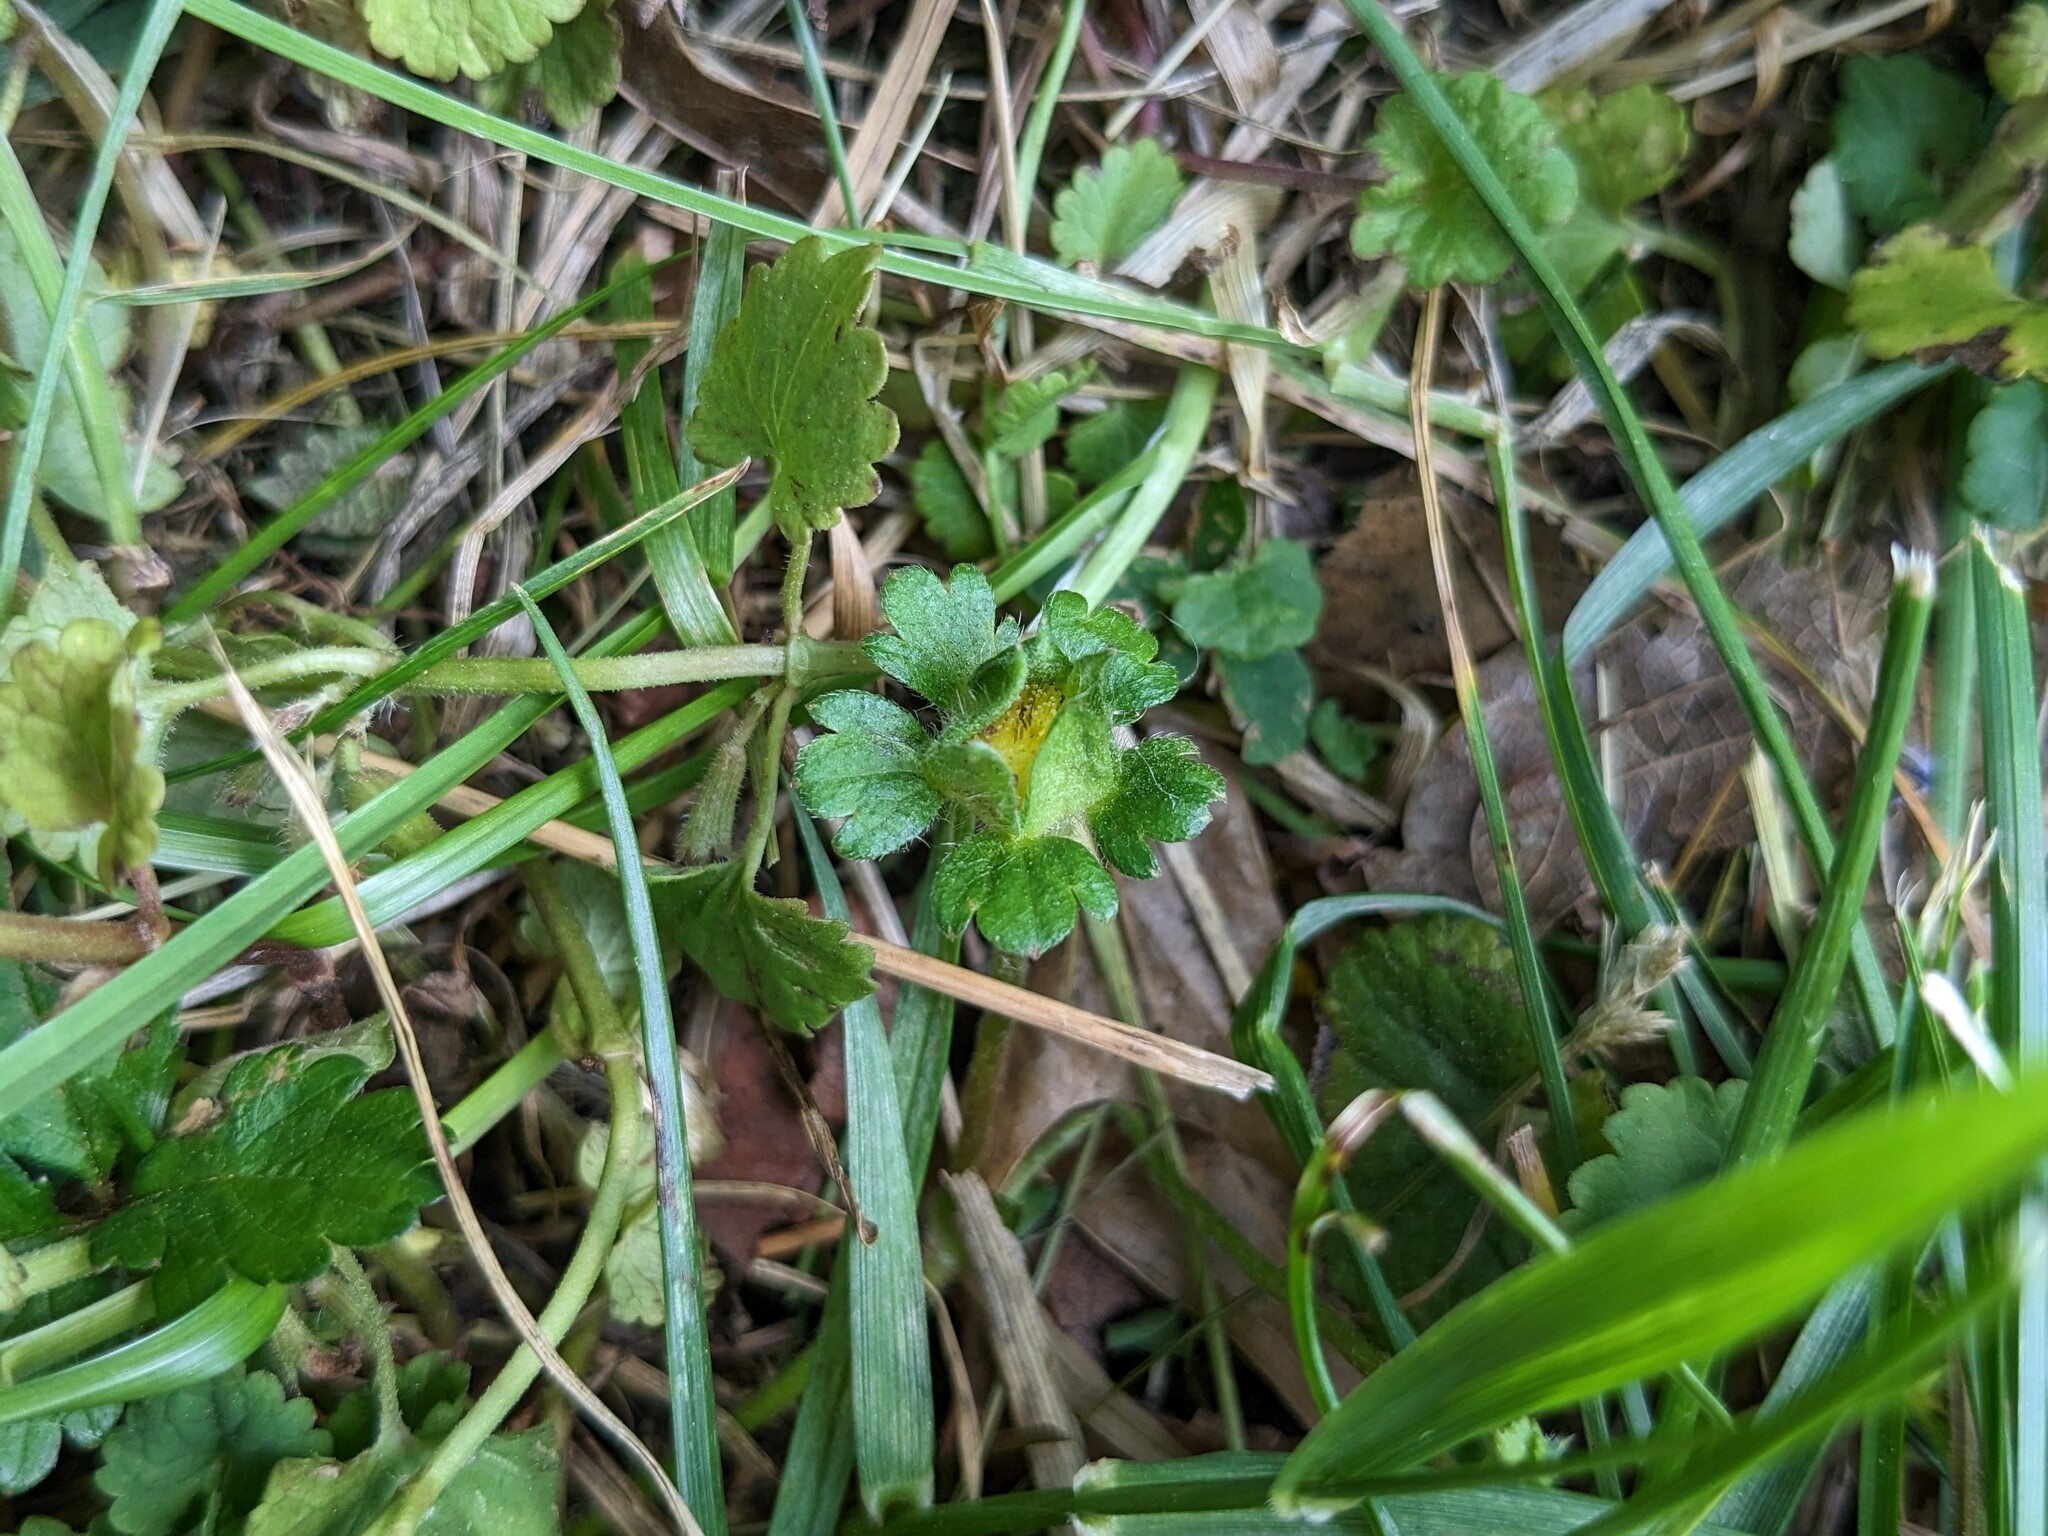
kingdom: Plantae
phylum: Tracheophyta
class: Magnoliopsida
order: Rosales
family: Rosaceae
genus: Potentilla
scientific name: Potentilla indica
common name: Yellow-flowered strawberry
